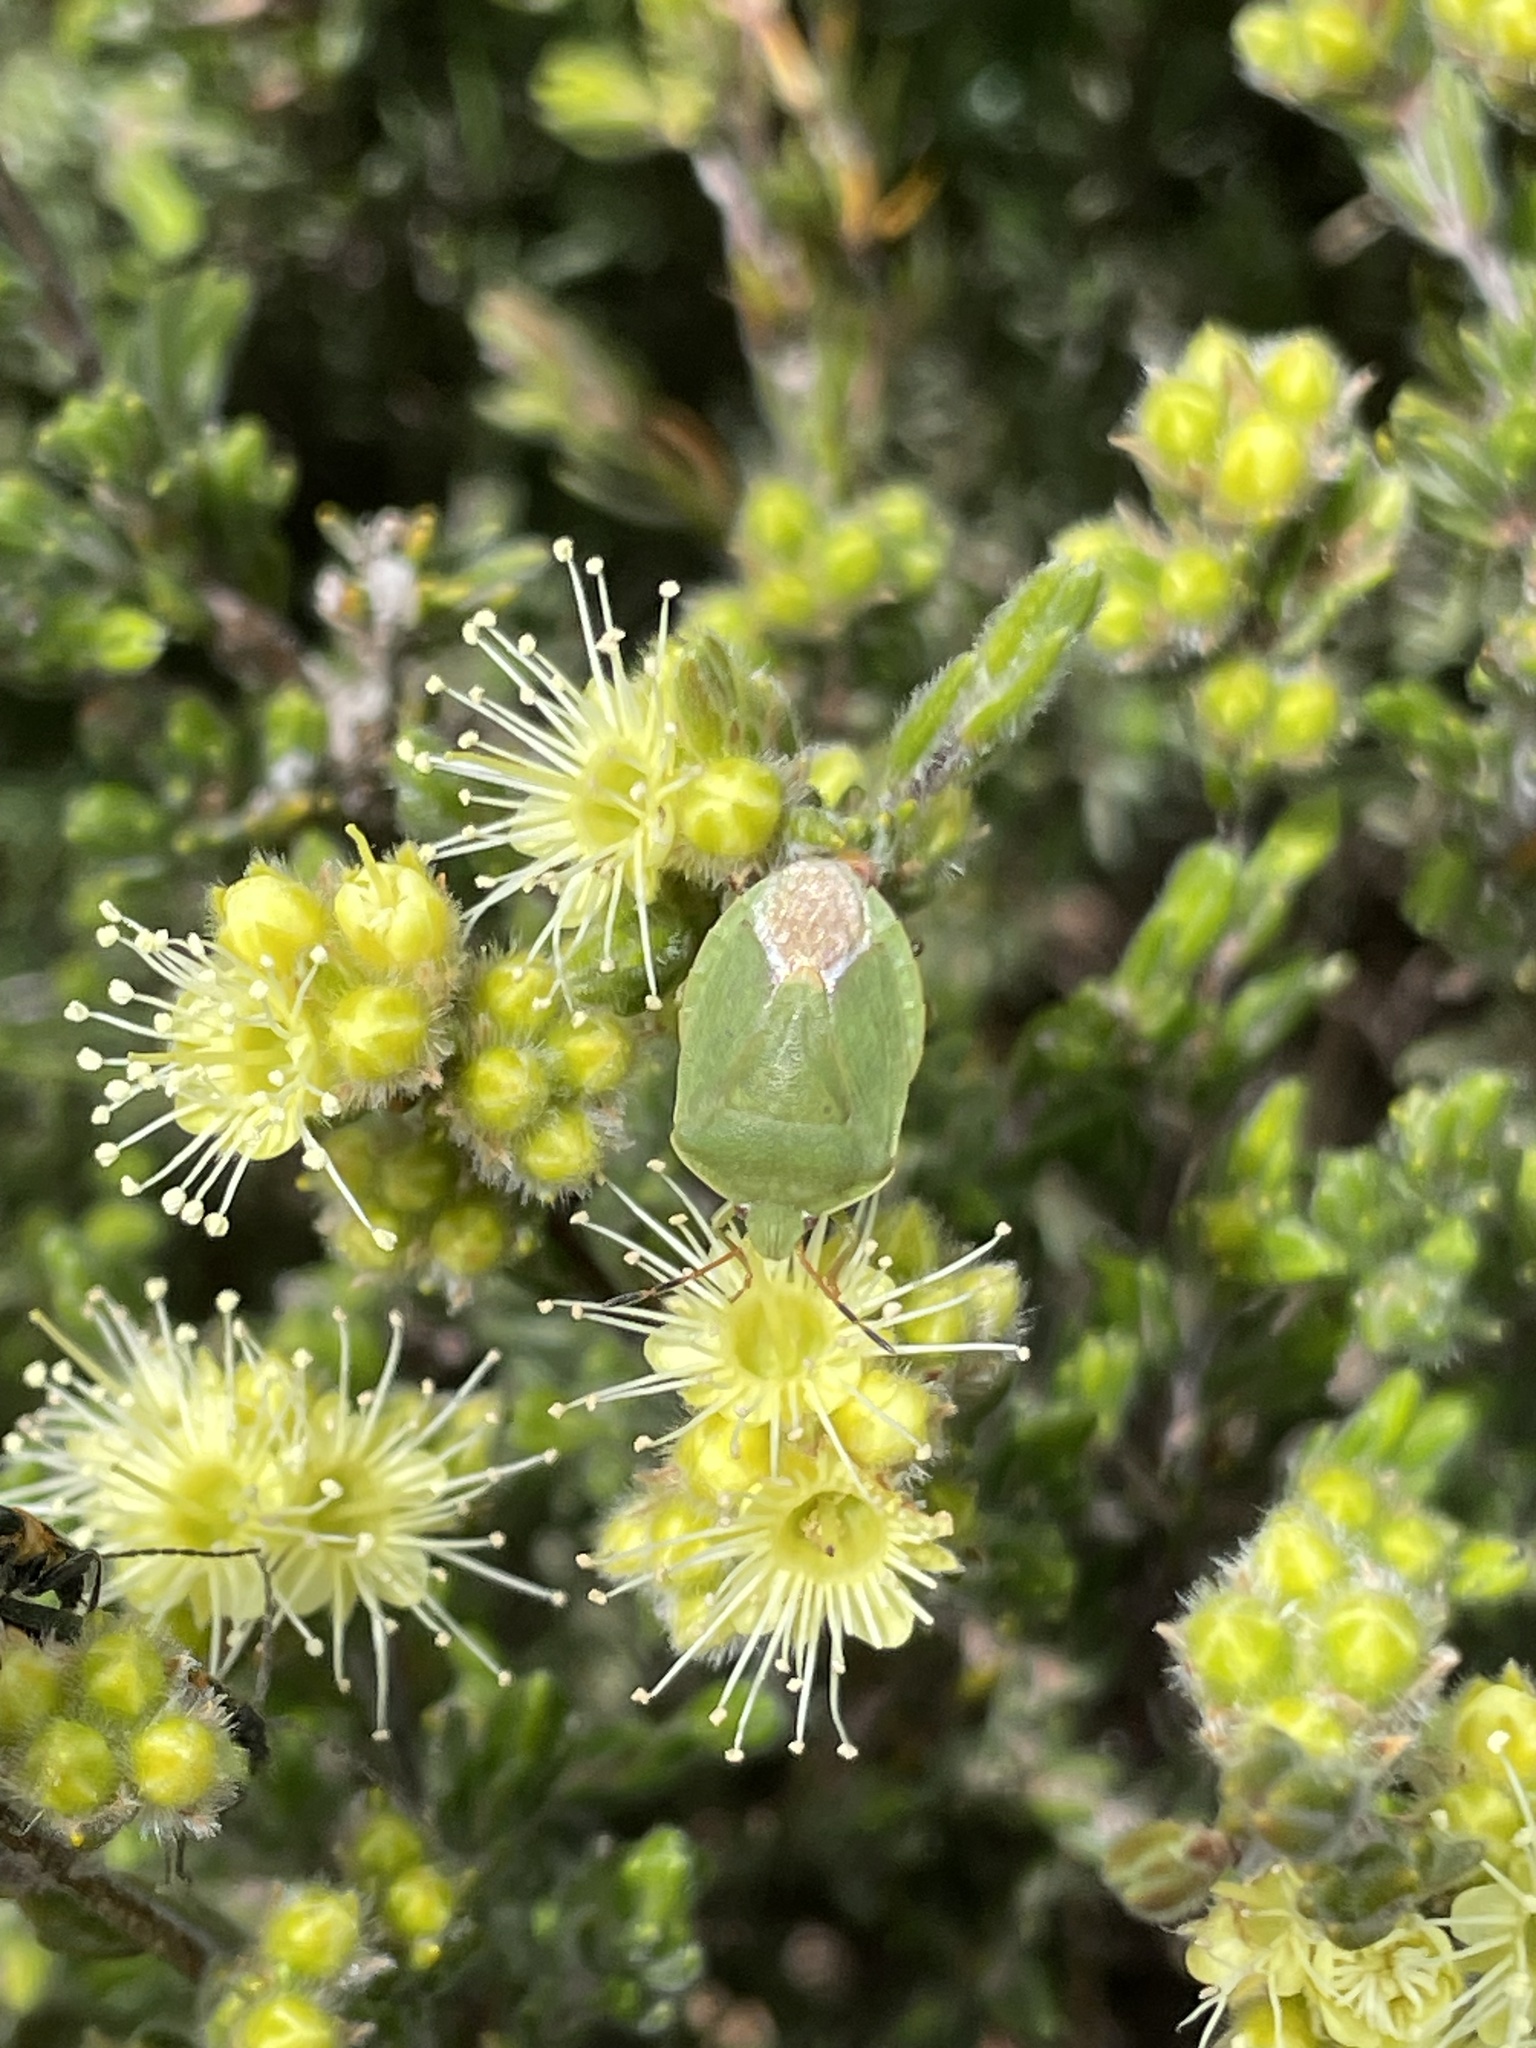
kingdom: Animalia
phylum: Arthropoda
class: Insecta
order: Hemiptera
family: Pentatomidae
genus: Ocirrhoe
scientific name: Ocirrhoe
